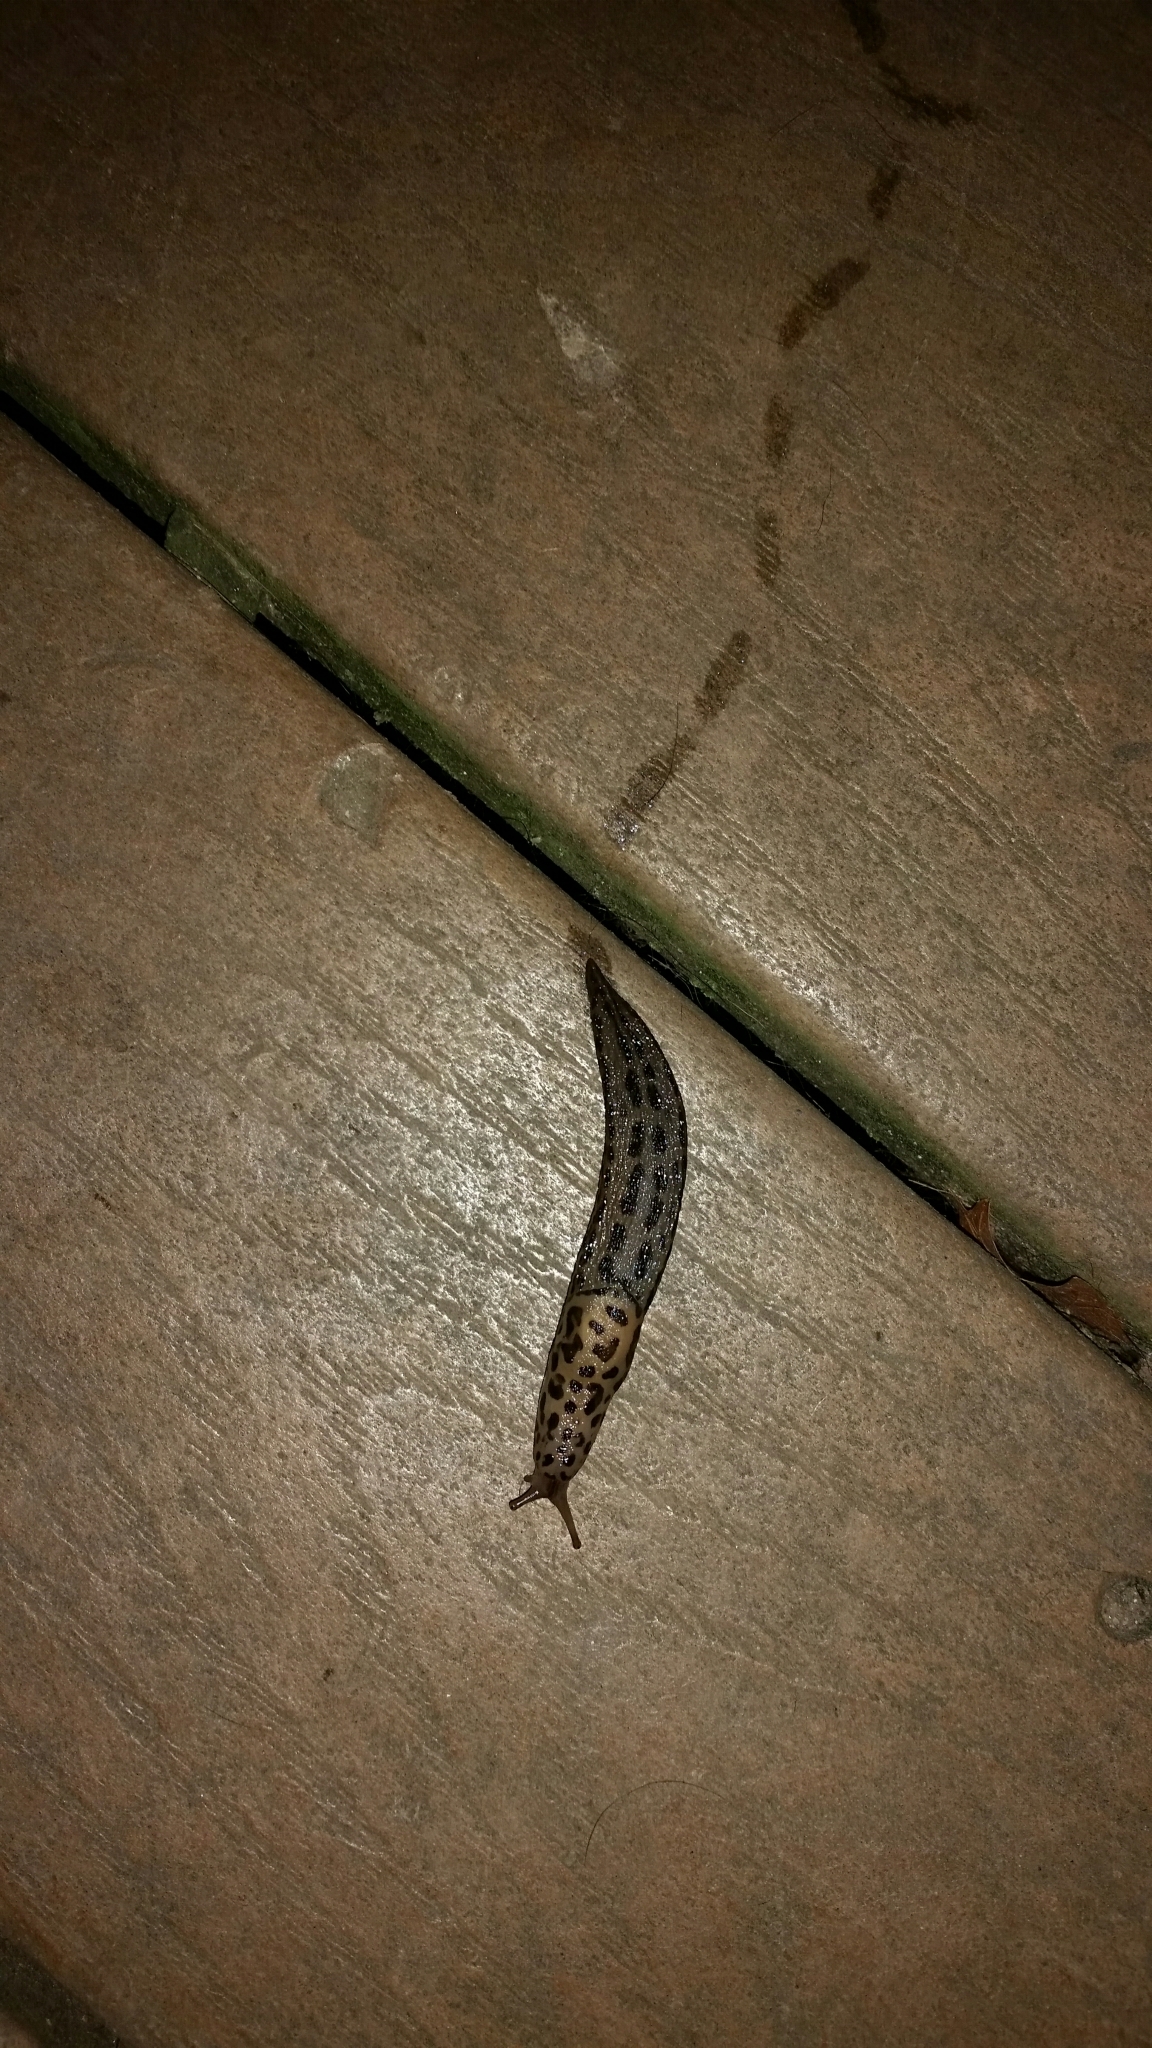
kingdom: Animalia
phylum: Mollusca
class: Gastropoda
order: Stylommatophora
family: Limacidae
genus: Limax
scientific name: Limax maximus
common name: Great grey slug
